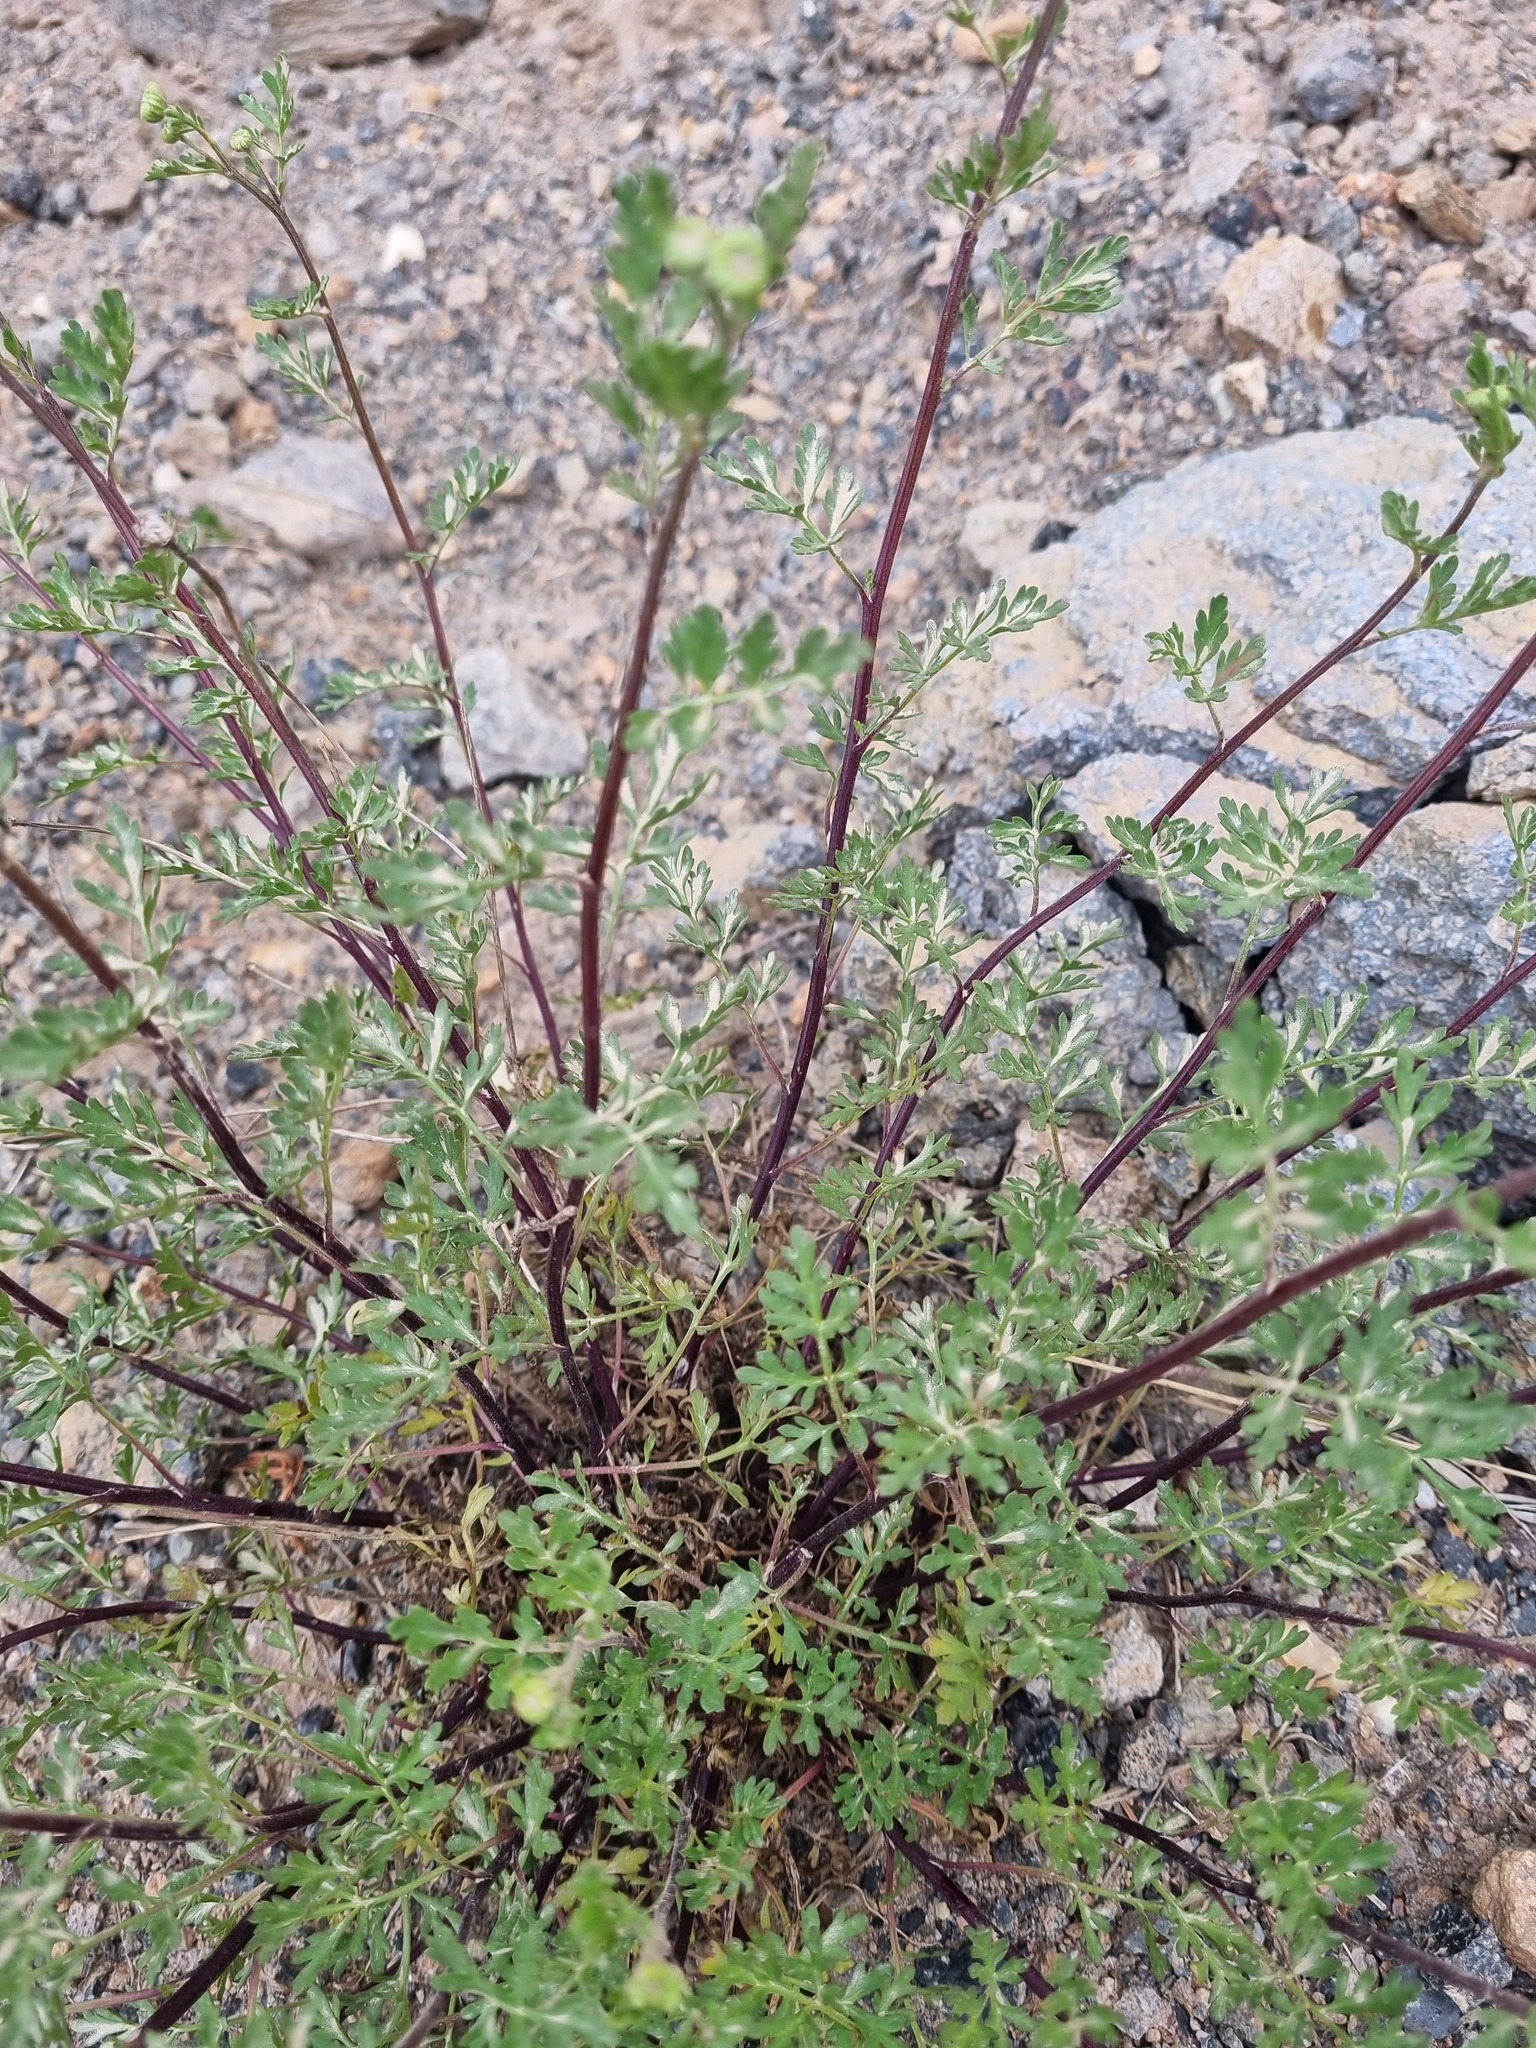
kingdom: Plantae
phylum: Tracheophyta
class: Magnoliopsida
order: Asterales
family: Asteraceae
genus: Tanacetum
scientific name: Tanacetum partheniifolium
